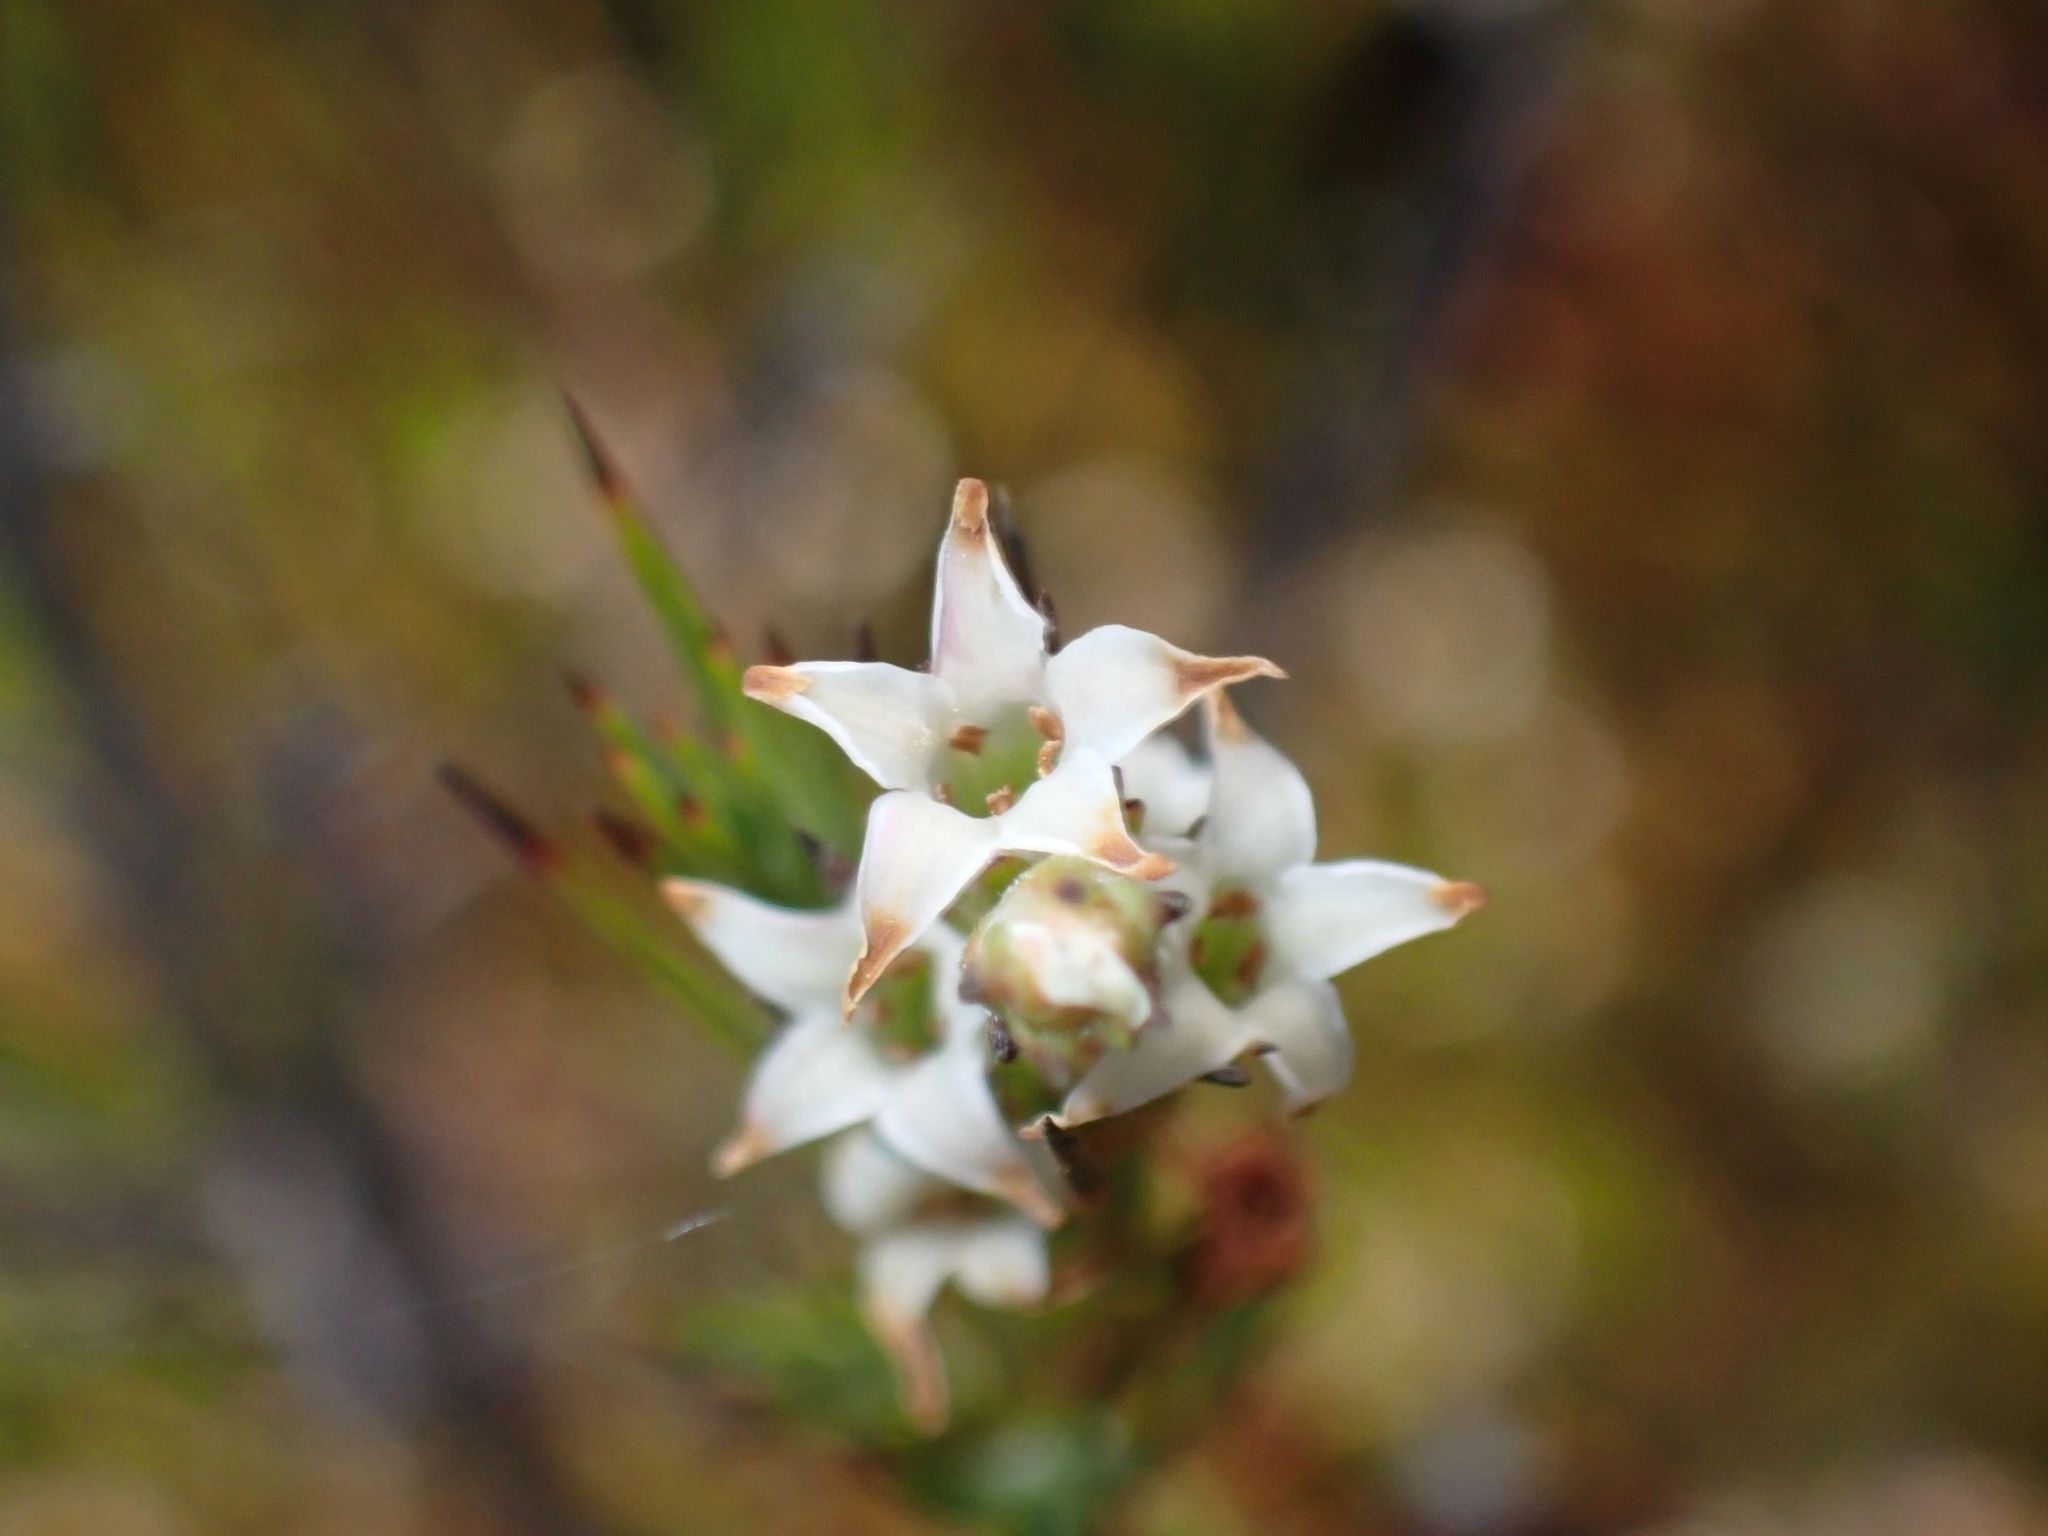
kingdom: Plantae
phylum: Tracheophyta
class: Magnoliopsida
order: Ericales
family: Ericaceae
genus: Dracophyllum
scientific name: Dracophyllum lessonianum
